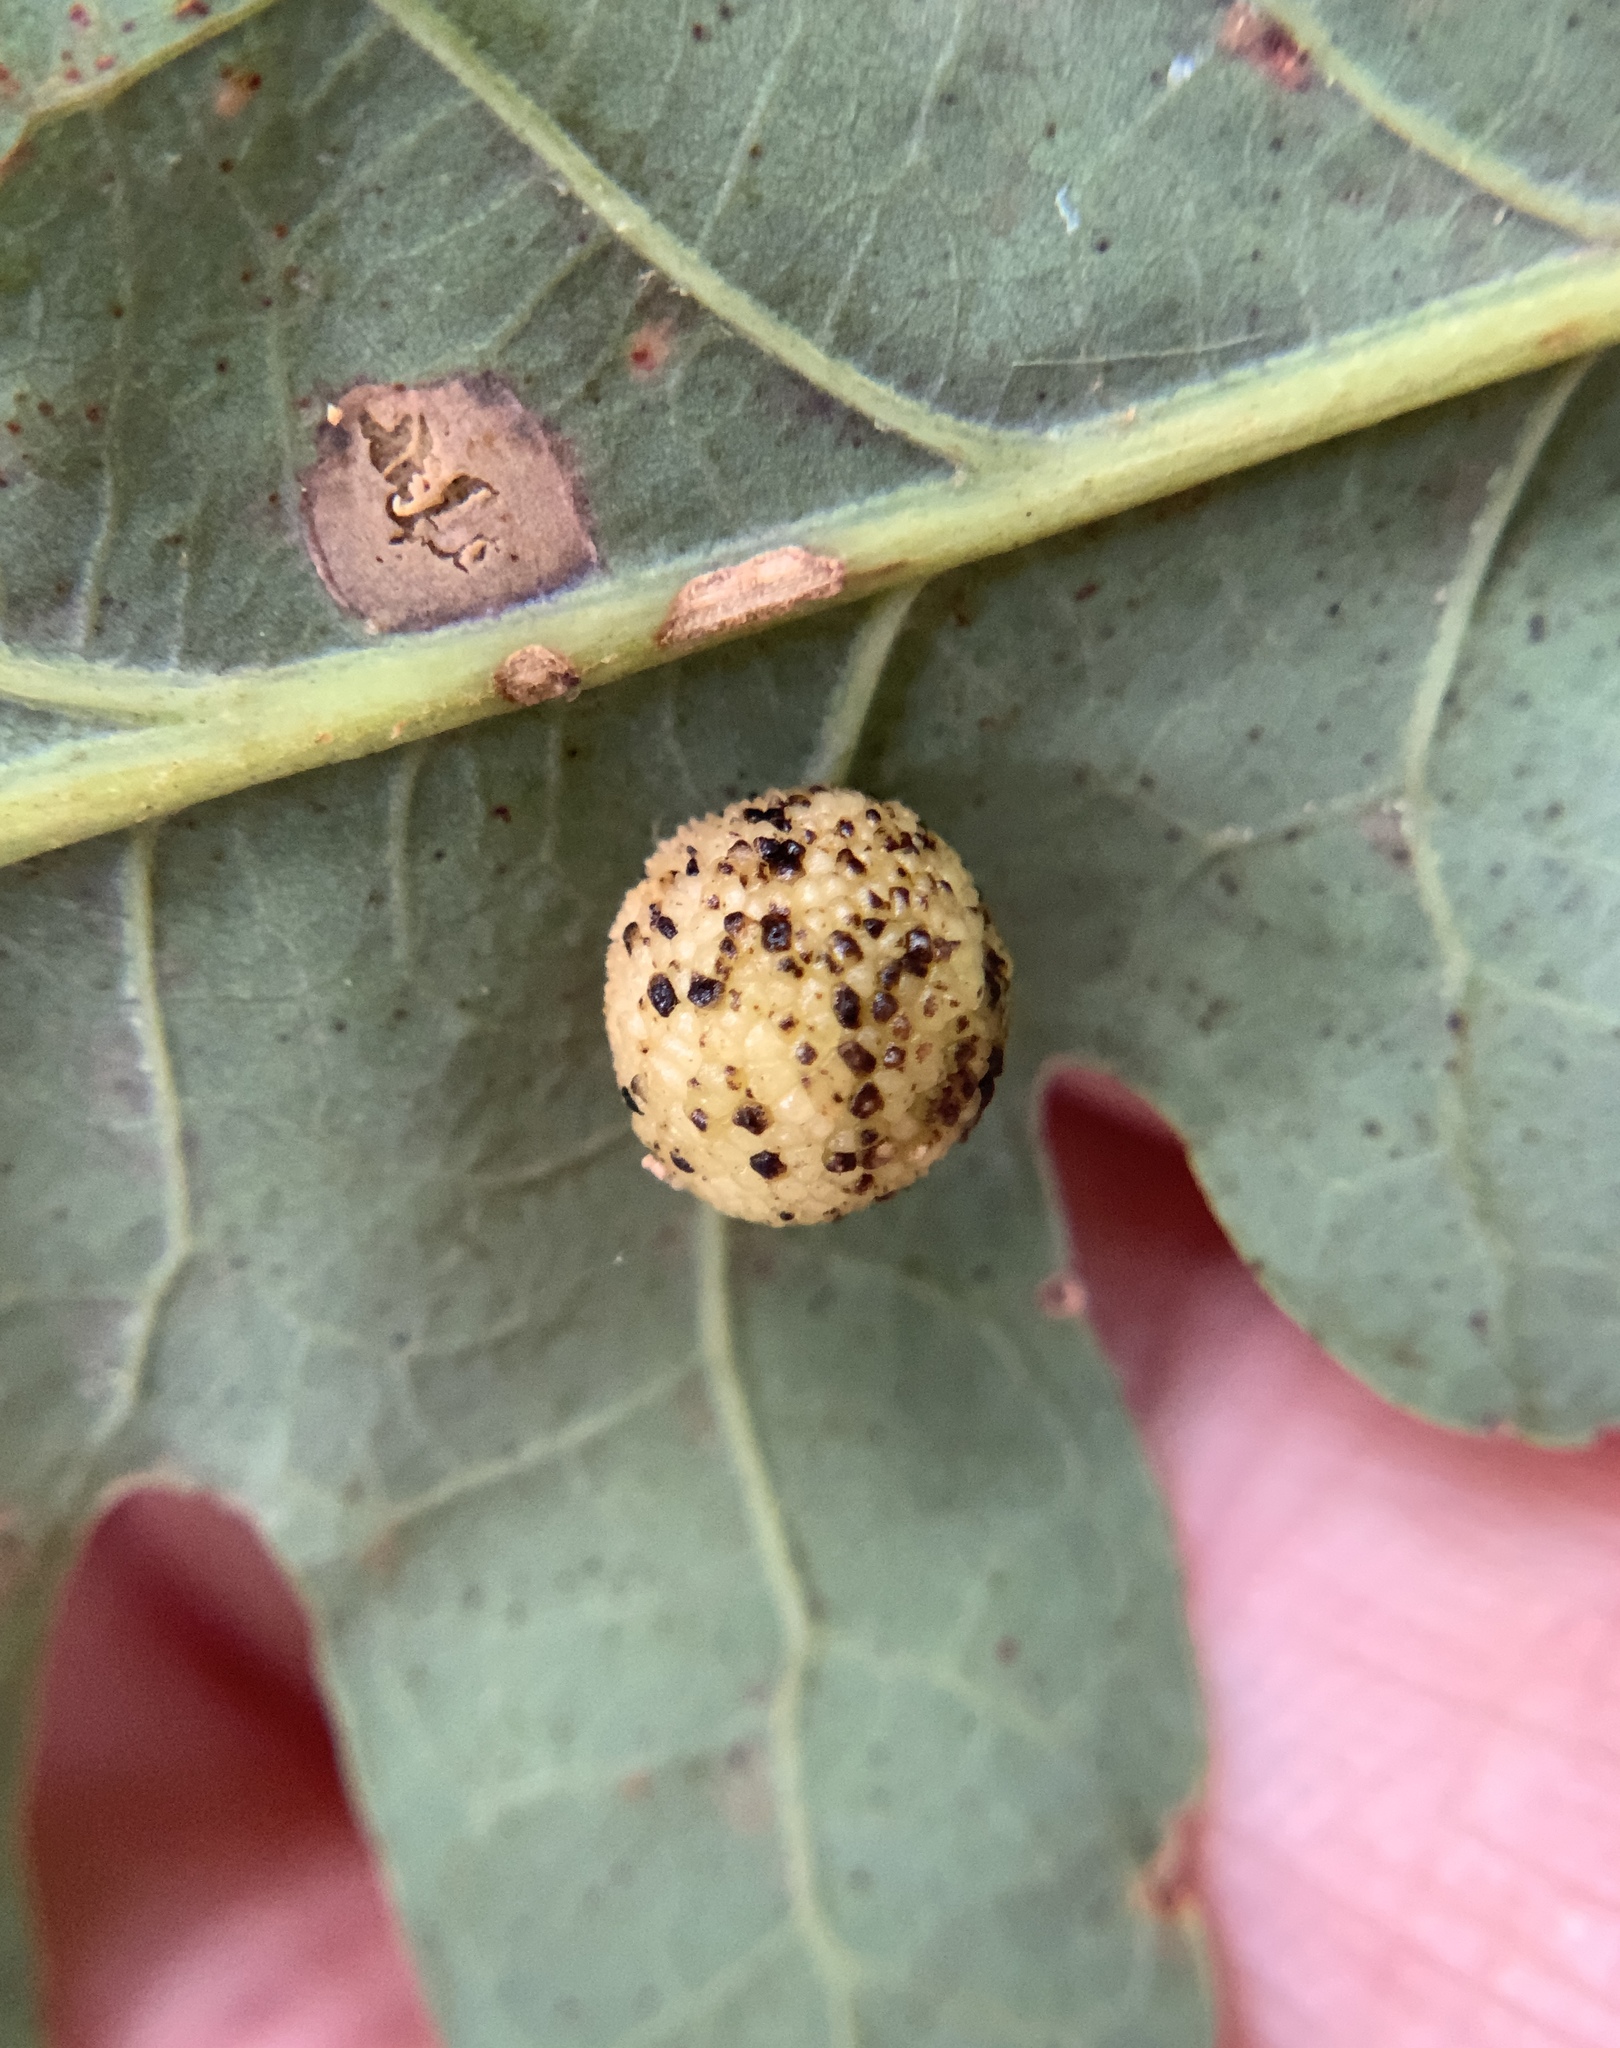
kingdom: Animalia
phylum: Arthropoda
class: Insecta
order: Hymenoptera
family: Cynipidae
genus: Acraspis
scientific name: Acraspis
